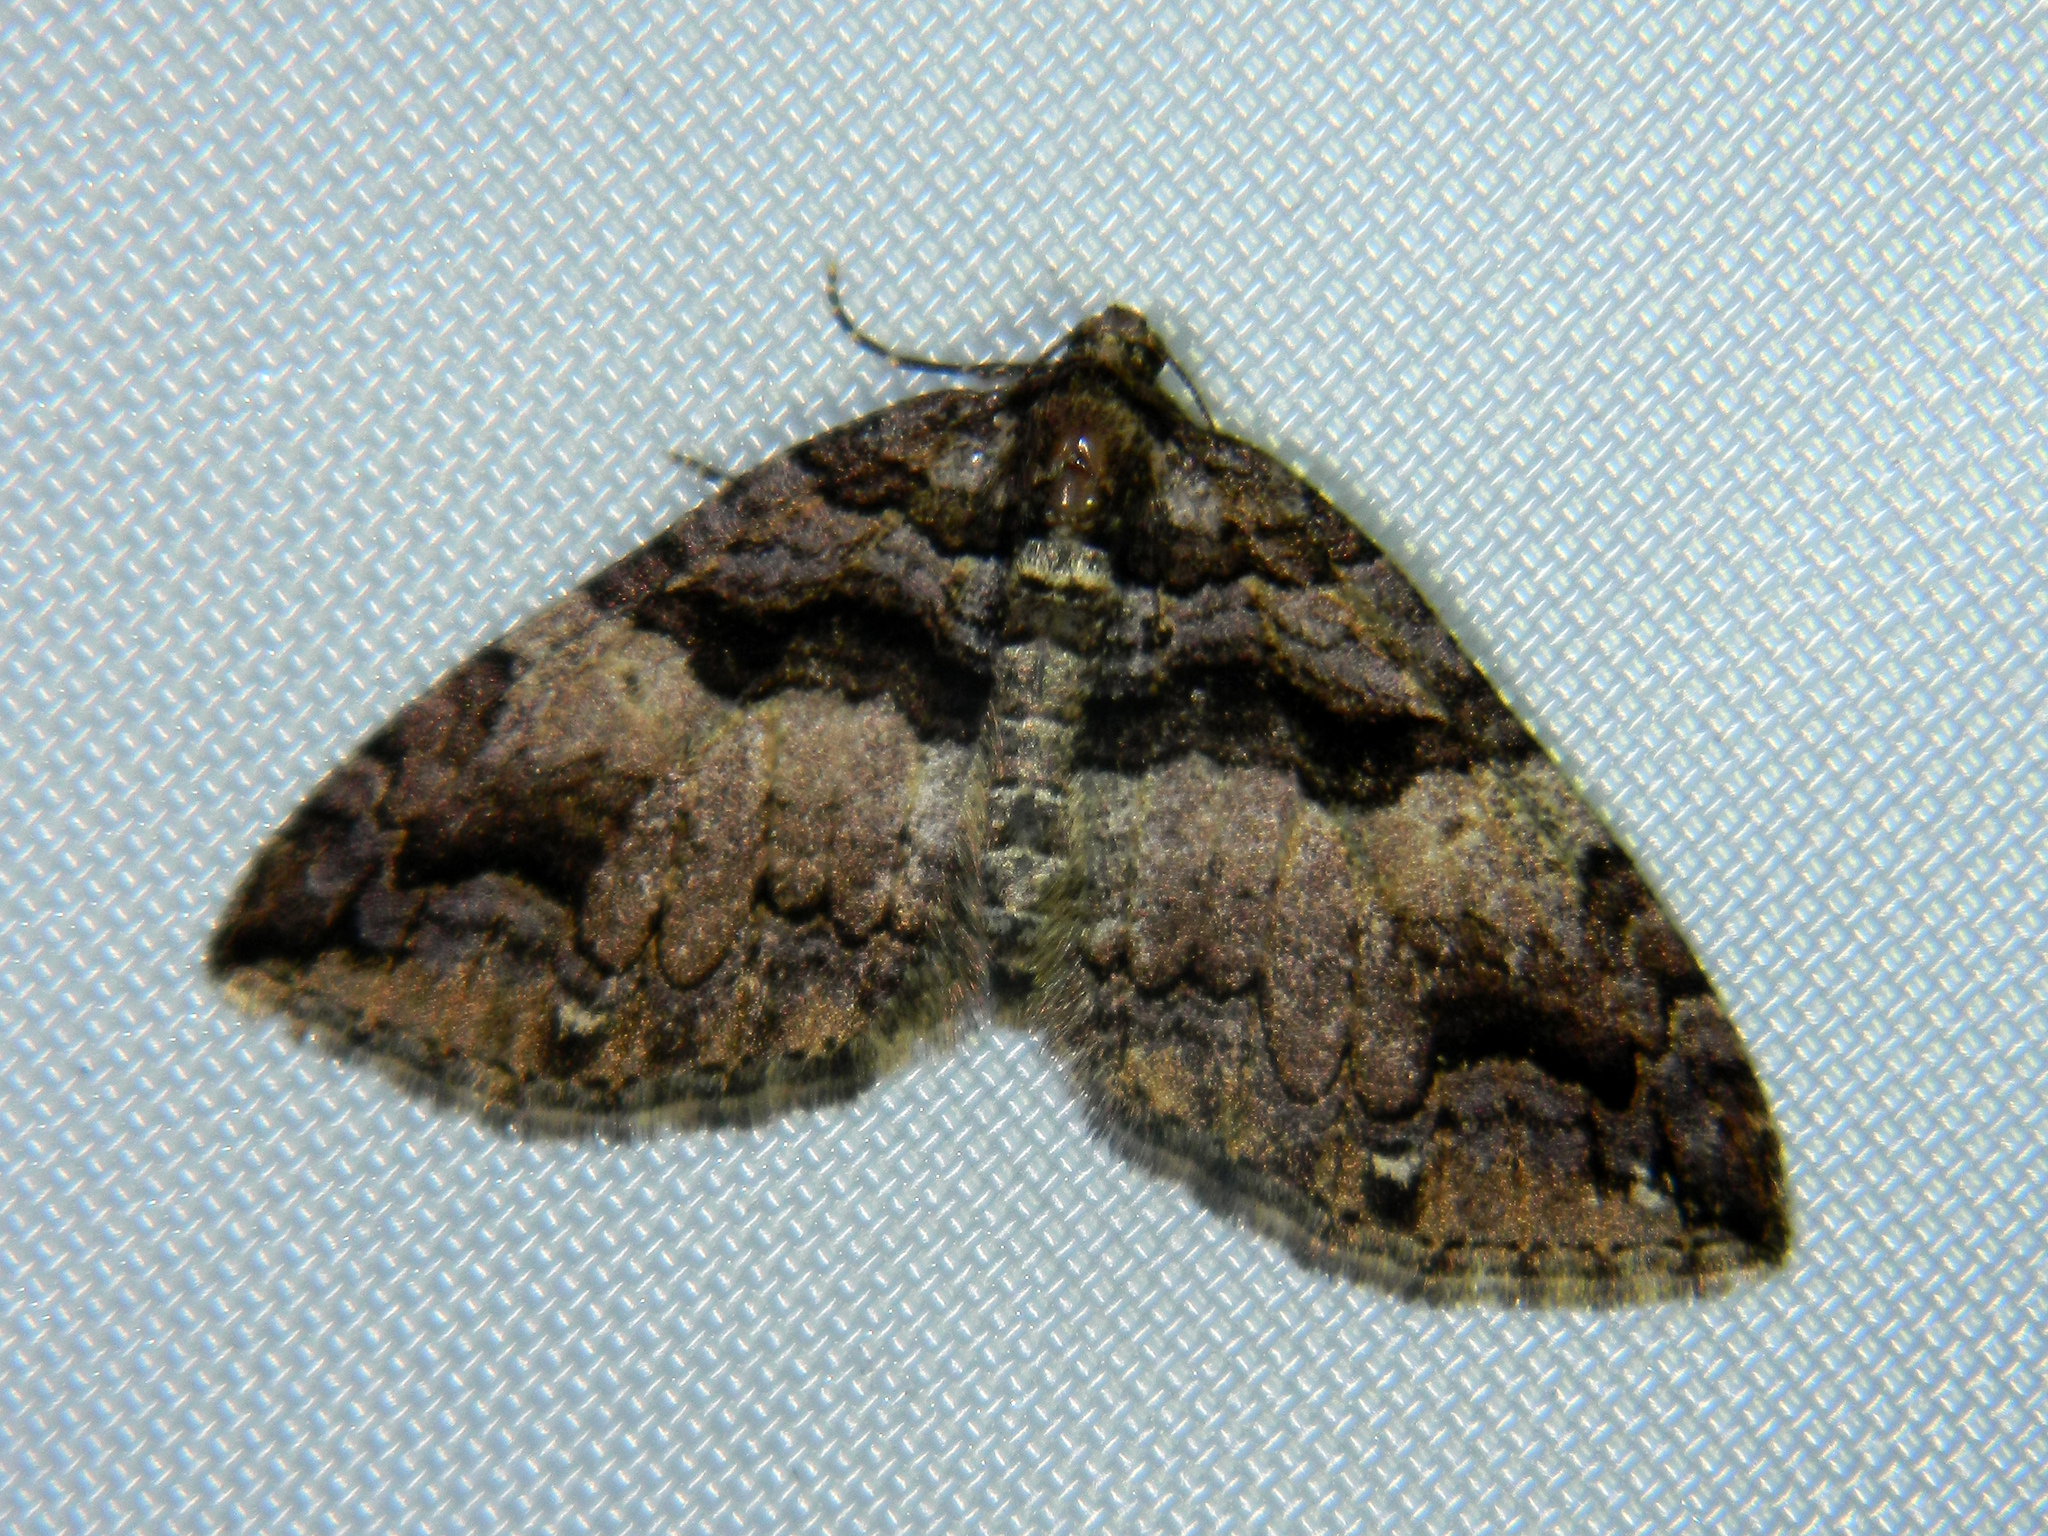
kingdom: Animalia
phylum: Arthropoda
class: Insecta
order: Lepidoptera
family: Geometridae
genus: Anticlea
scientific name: Anticlea vasiliata
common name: Variable carpet
